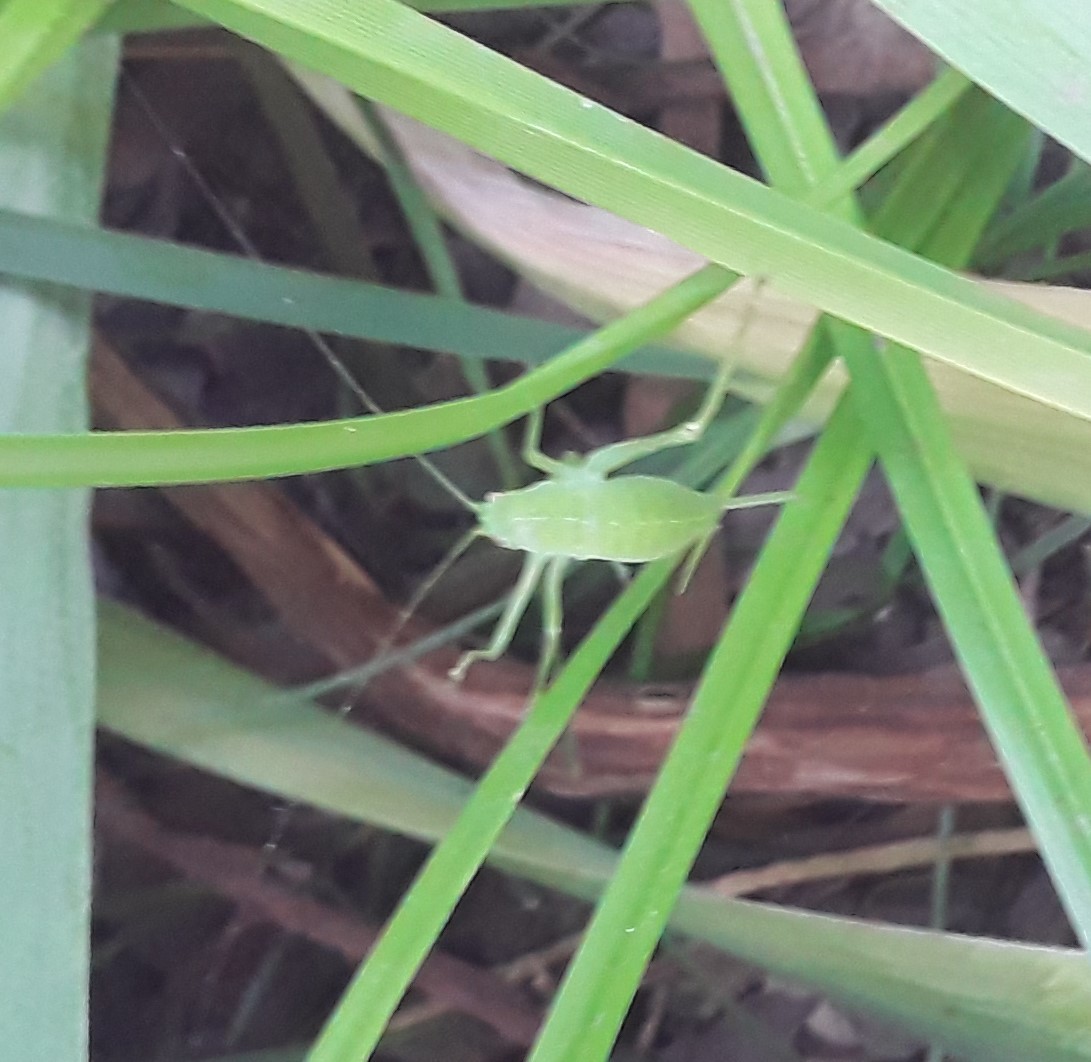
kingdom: Animalia
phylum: Arthropoda
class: Insecta
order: Orthoptera
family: Phaneropteridae
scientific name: Phaneropteridae
